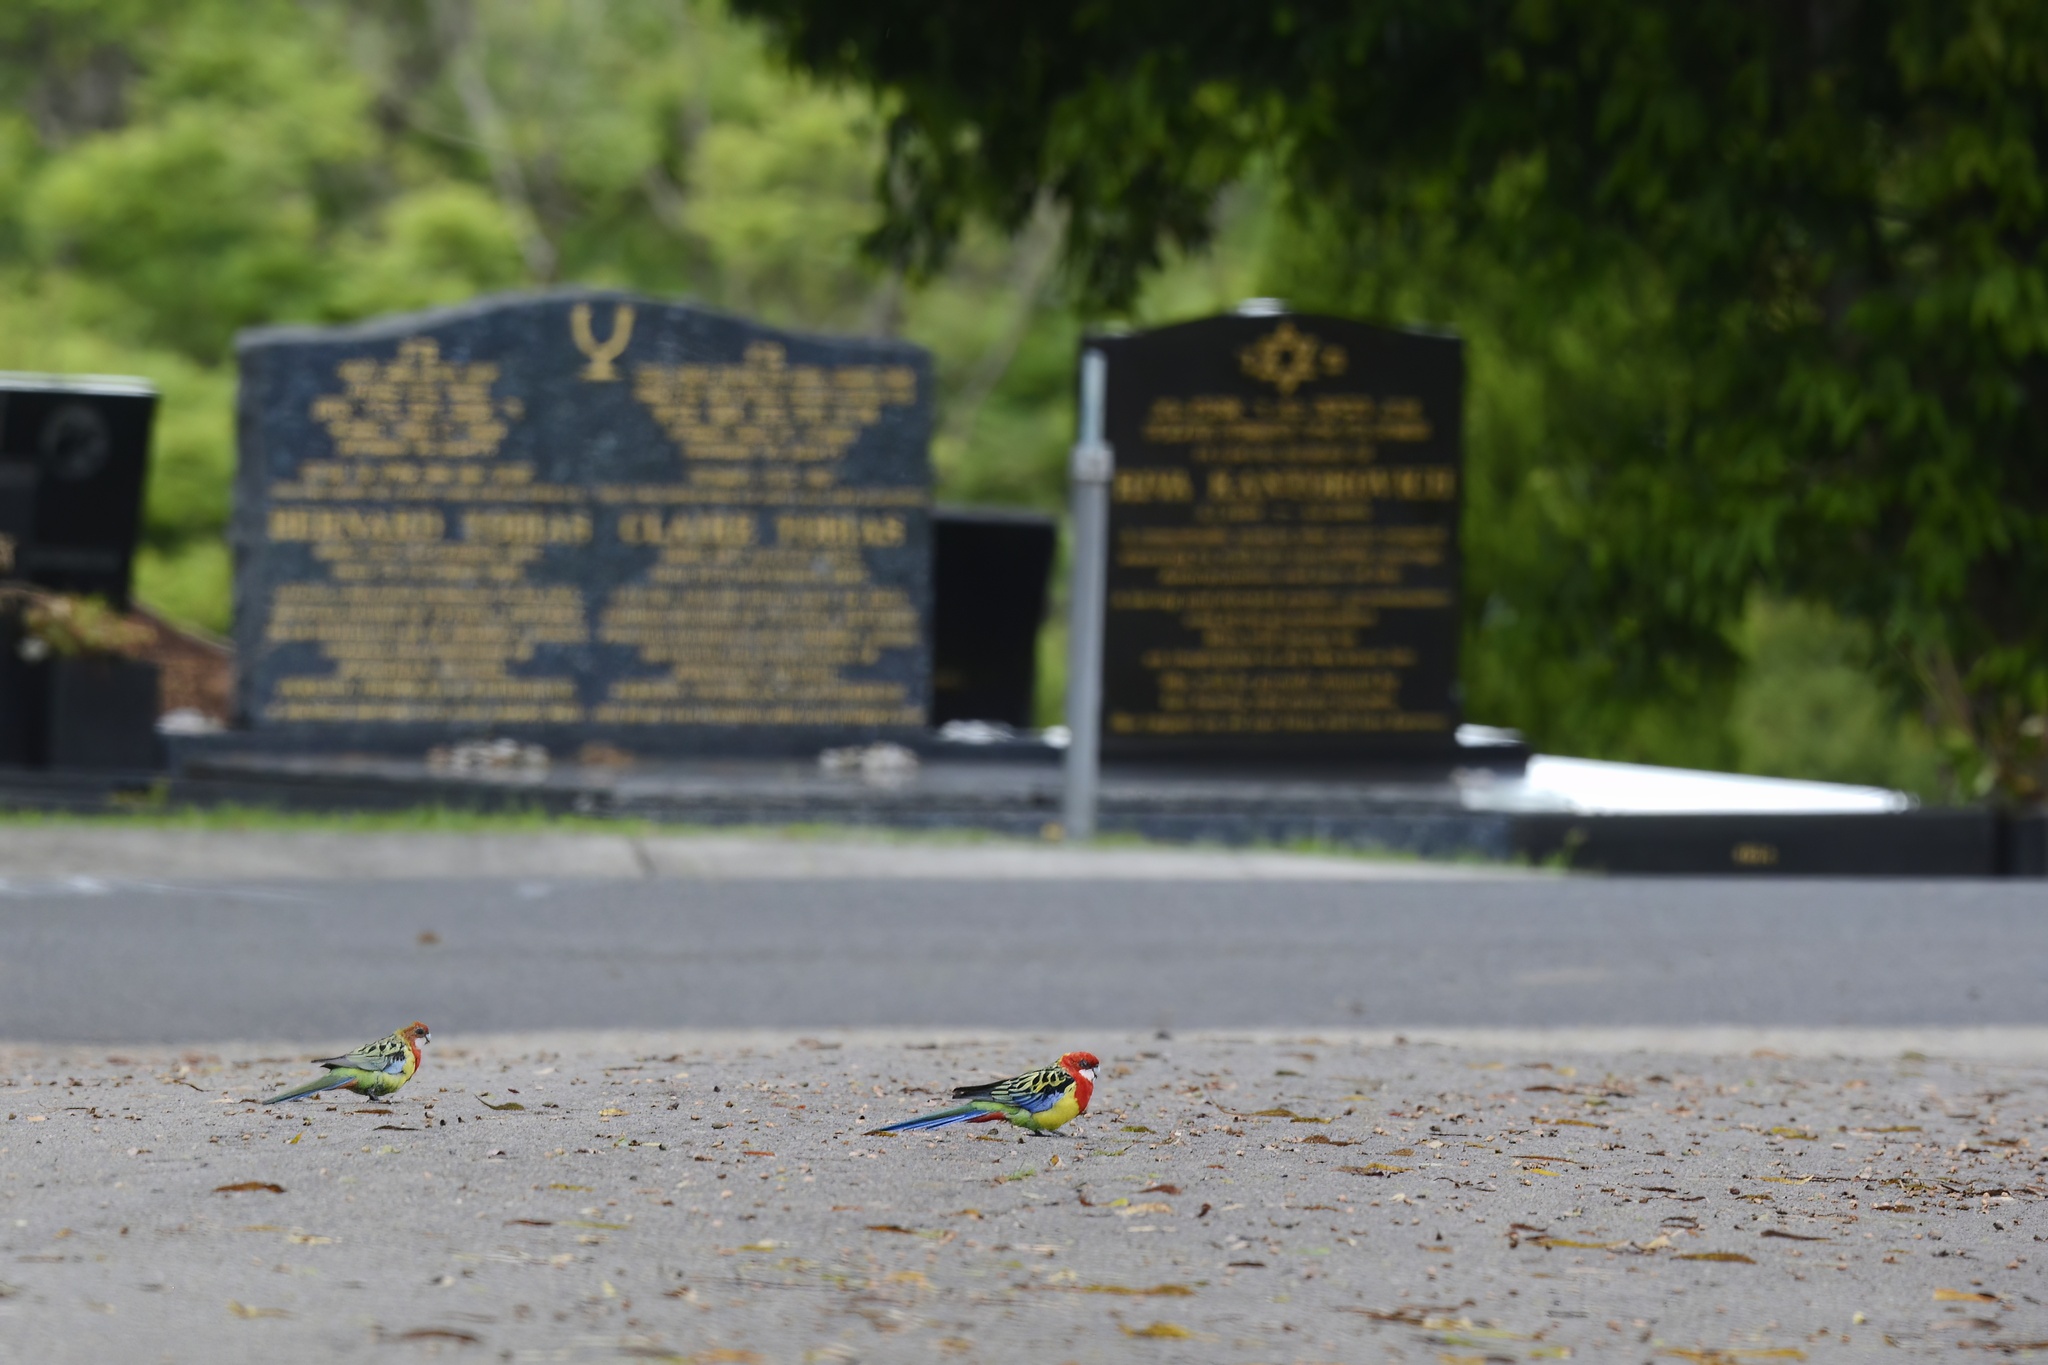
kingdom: Animalia
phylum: Chordata
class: Aves
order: Psittaciformes
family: Psittacidae
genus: Platycercus
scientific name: Platycercus eximius
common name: Eastern rosella
